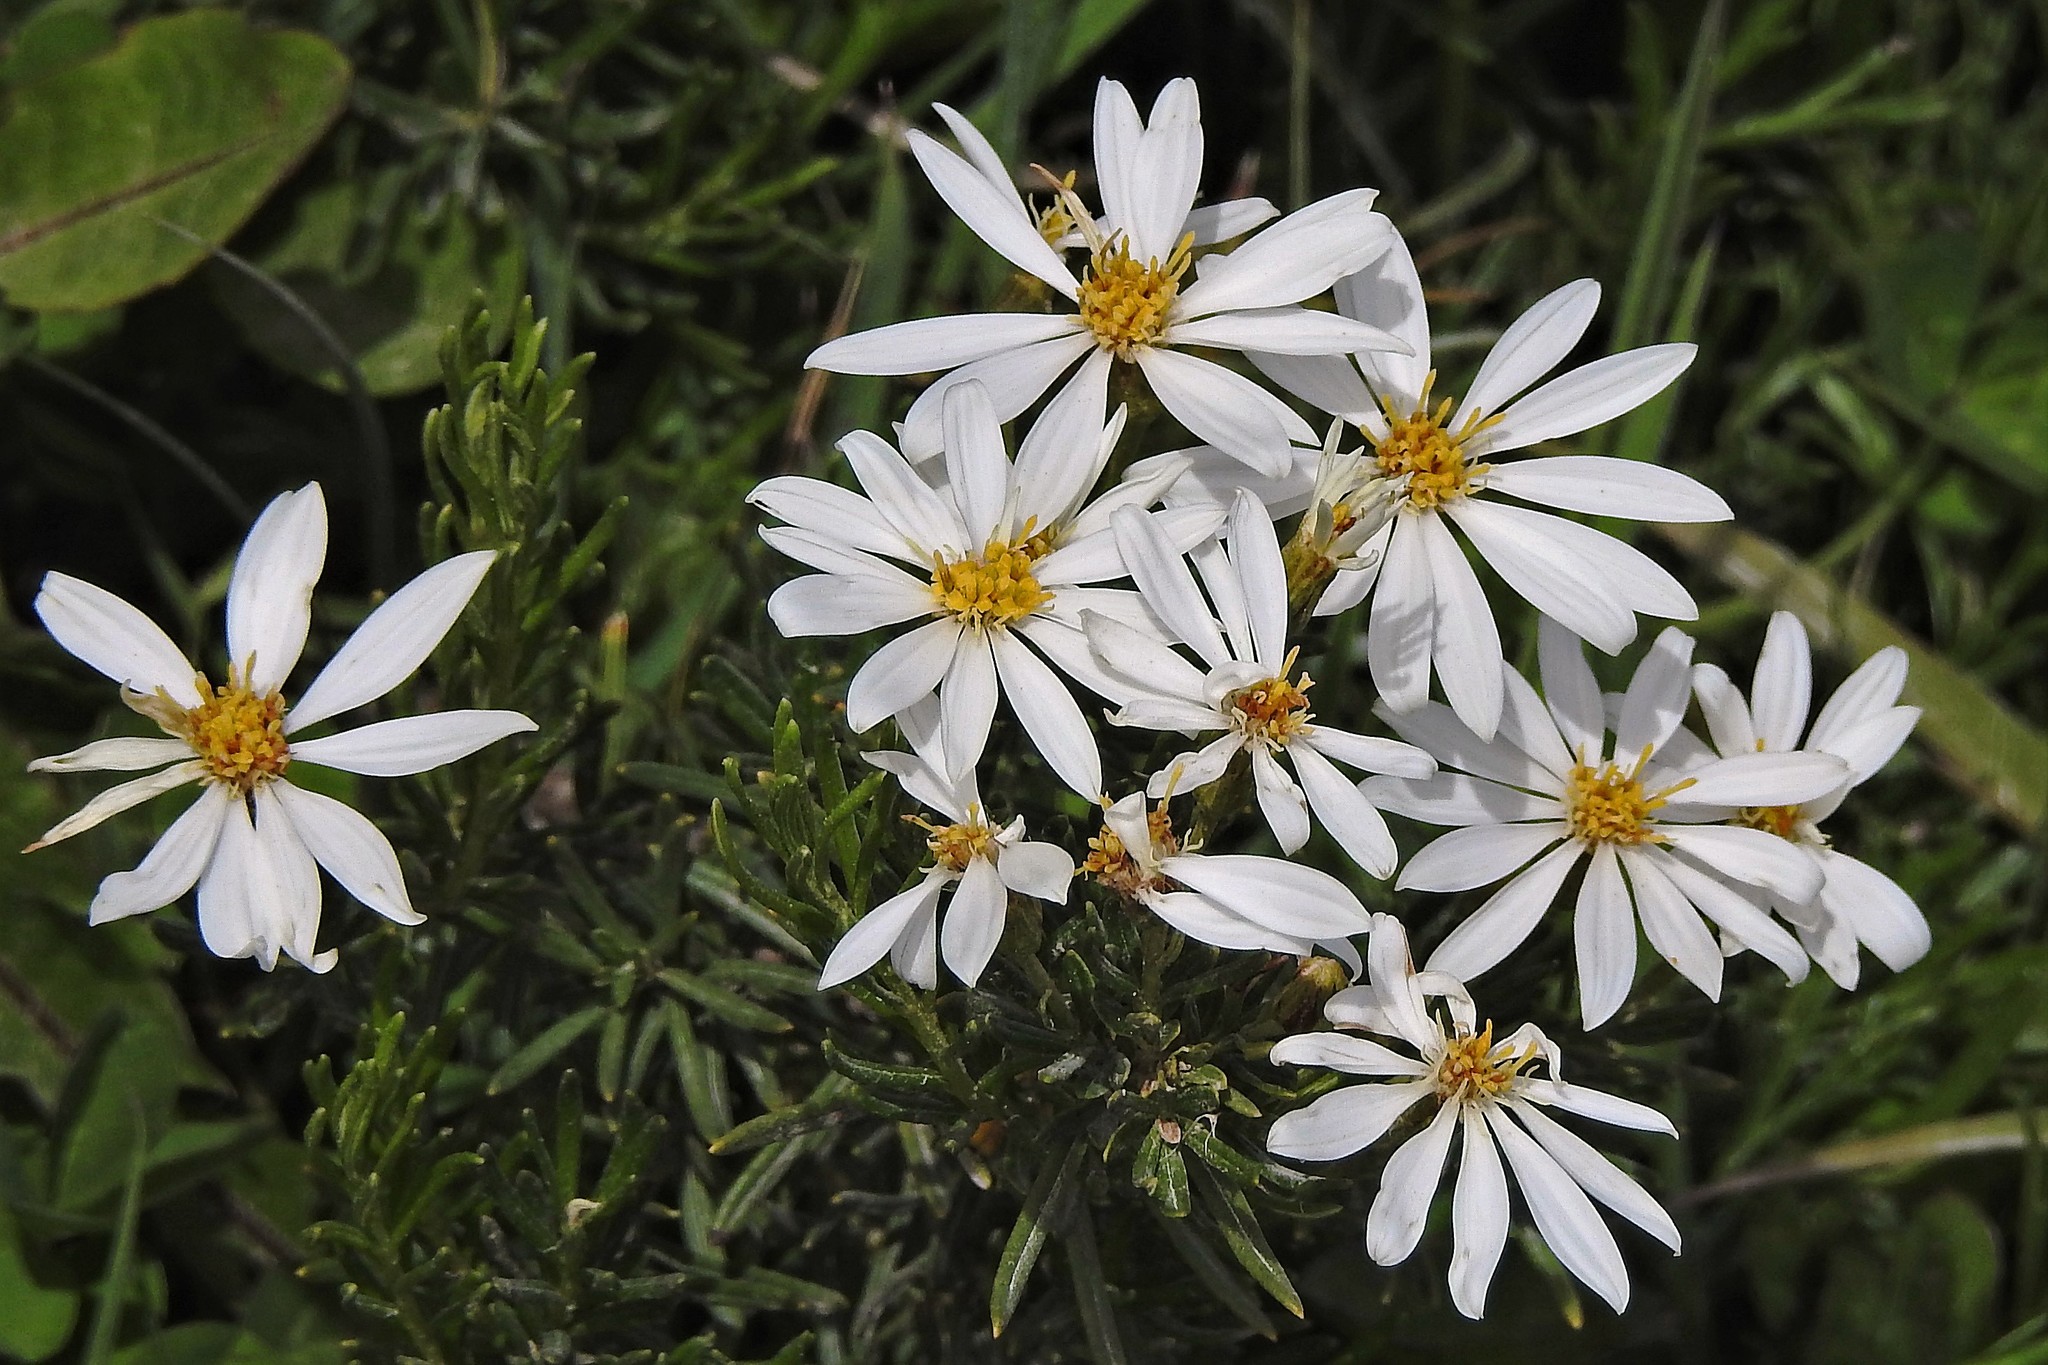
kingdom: Plantae
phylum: Tracheophyta
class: Magnoliopsida
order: Asterales
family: Asteraceae
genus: Chiliotrichum
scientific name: Chiliotrichum diffusum
